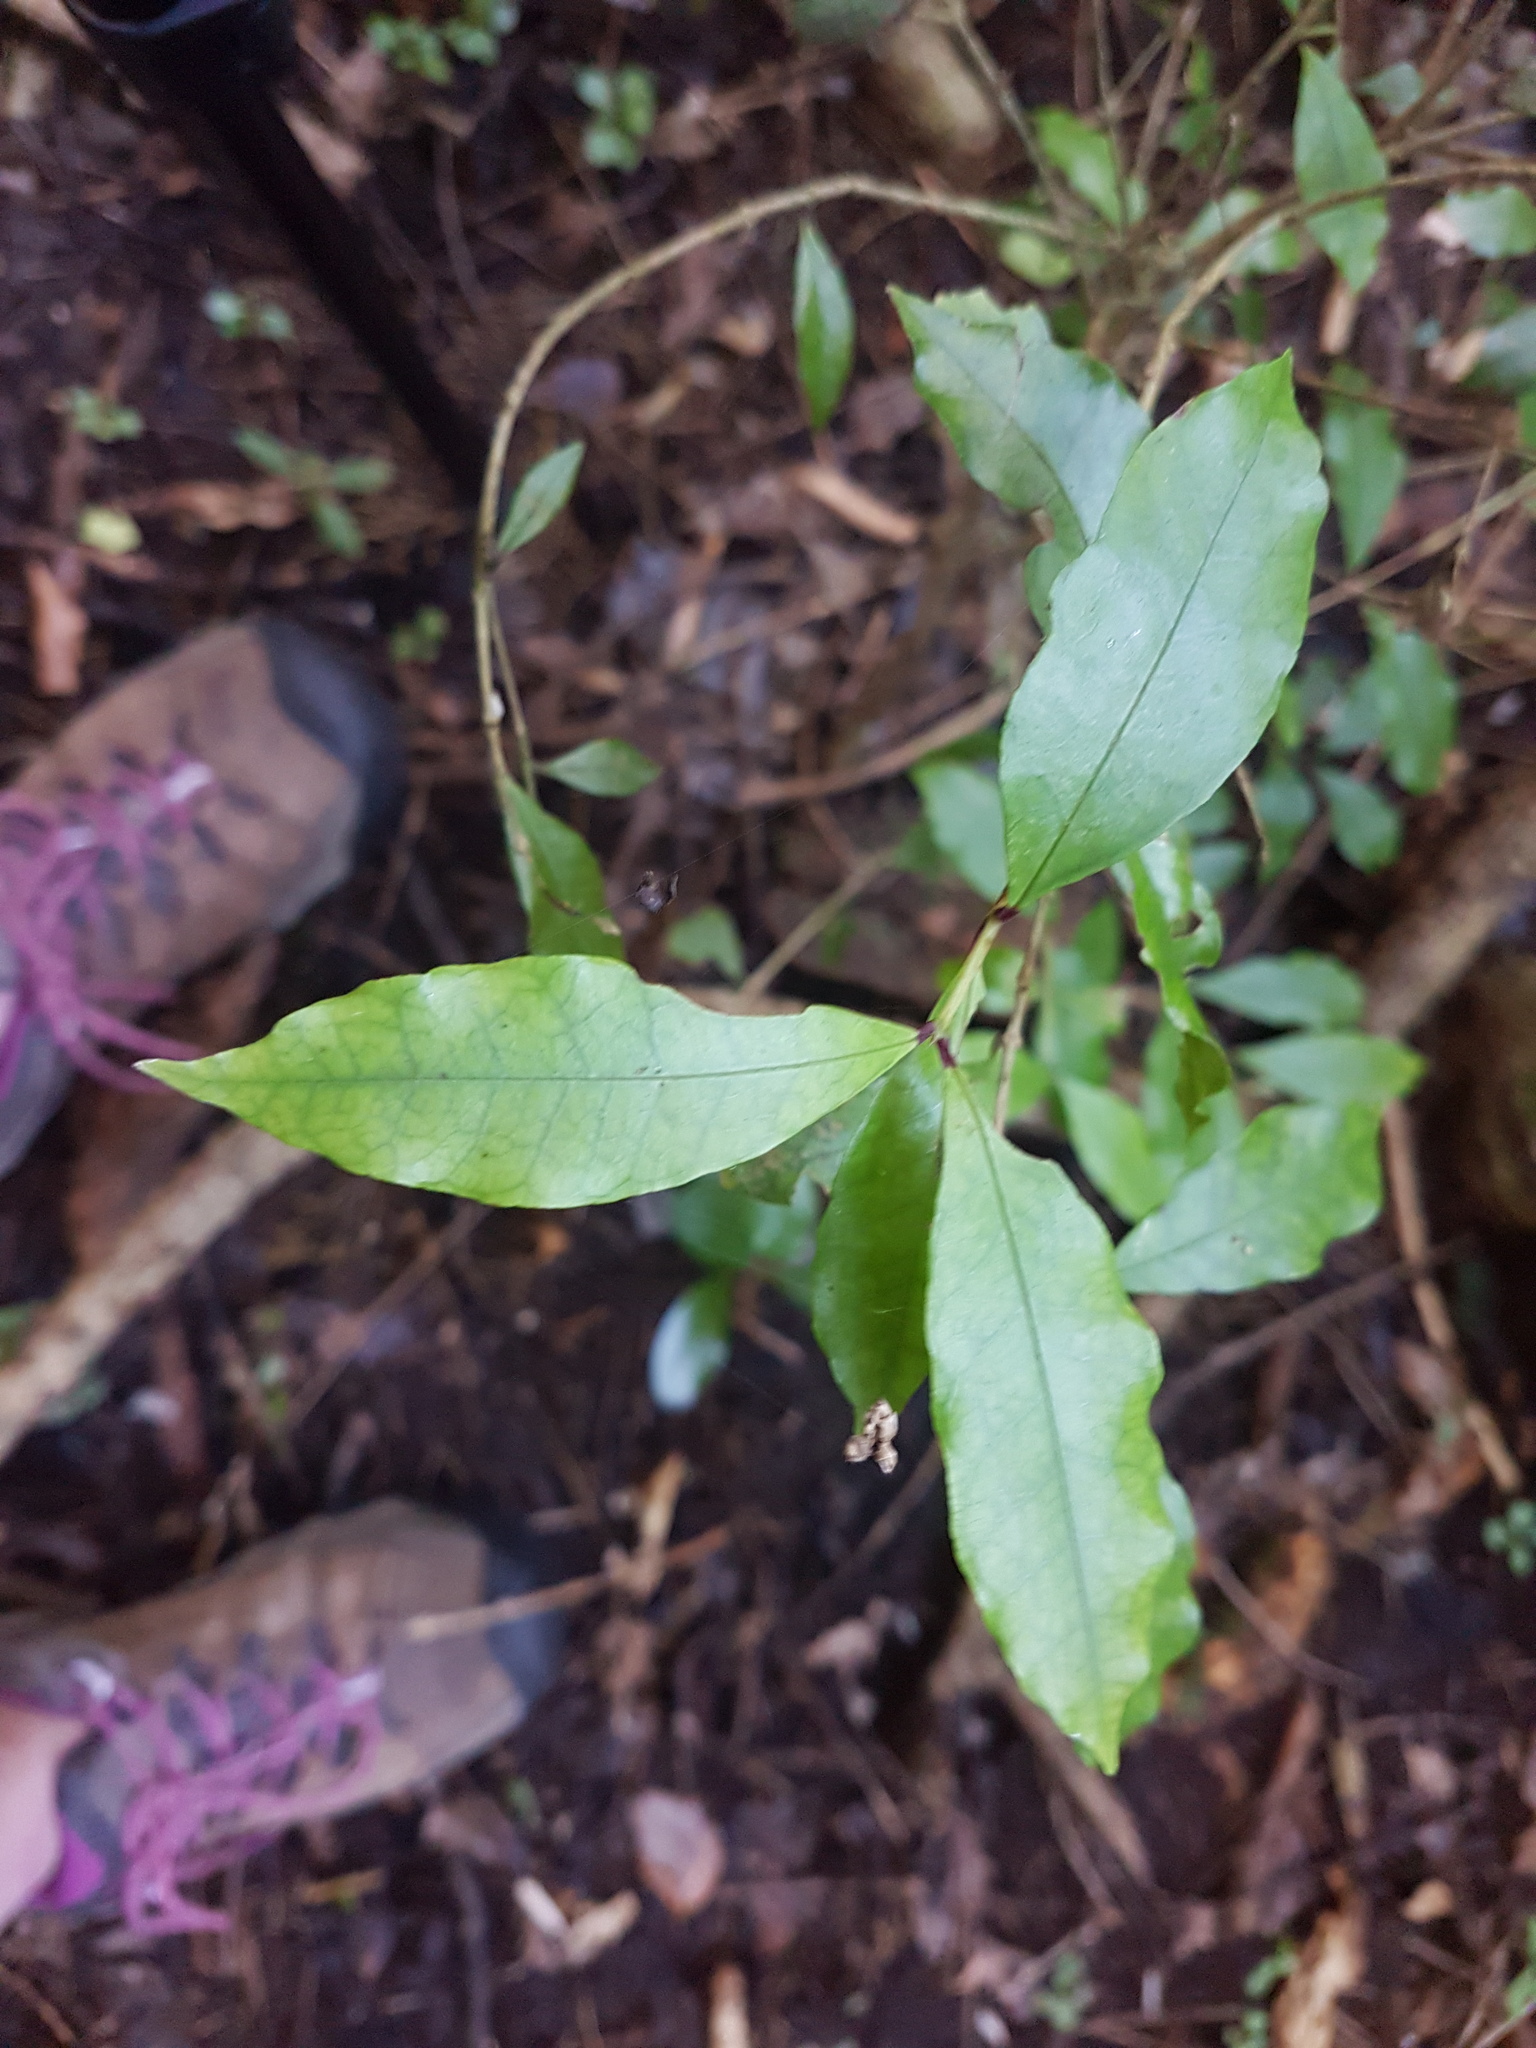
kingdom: Plantae
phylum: Tracheophyta
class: Magnoliopsida
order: Myrtales
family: Myrtaceae
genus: Syzygium
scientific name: Syzygium maire
